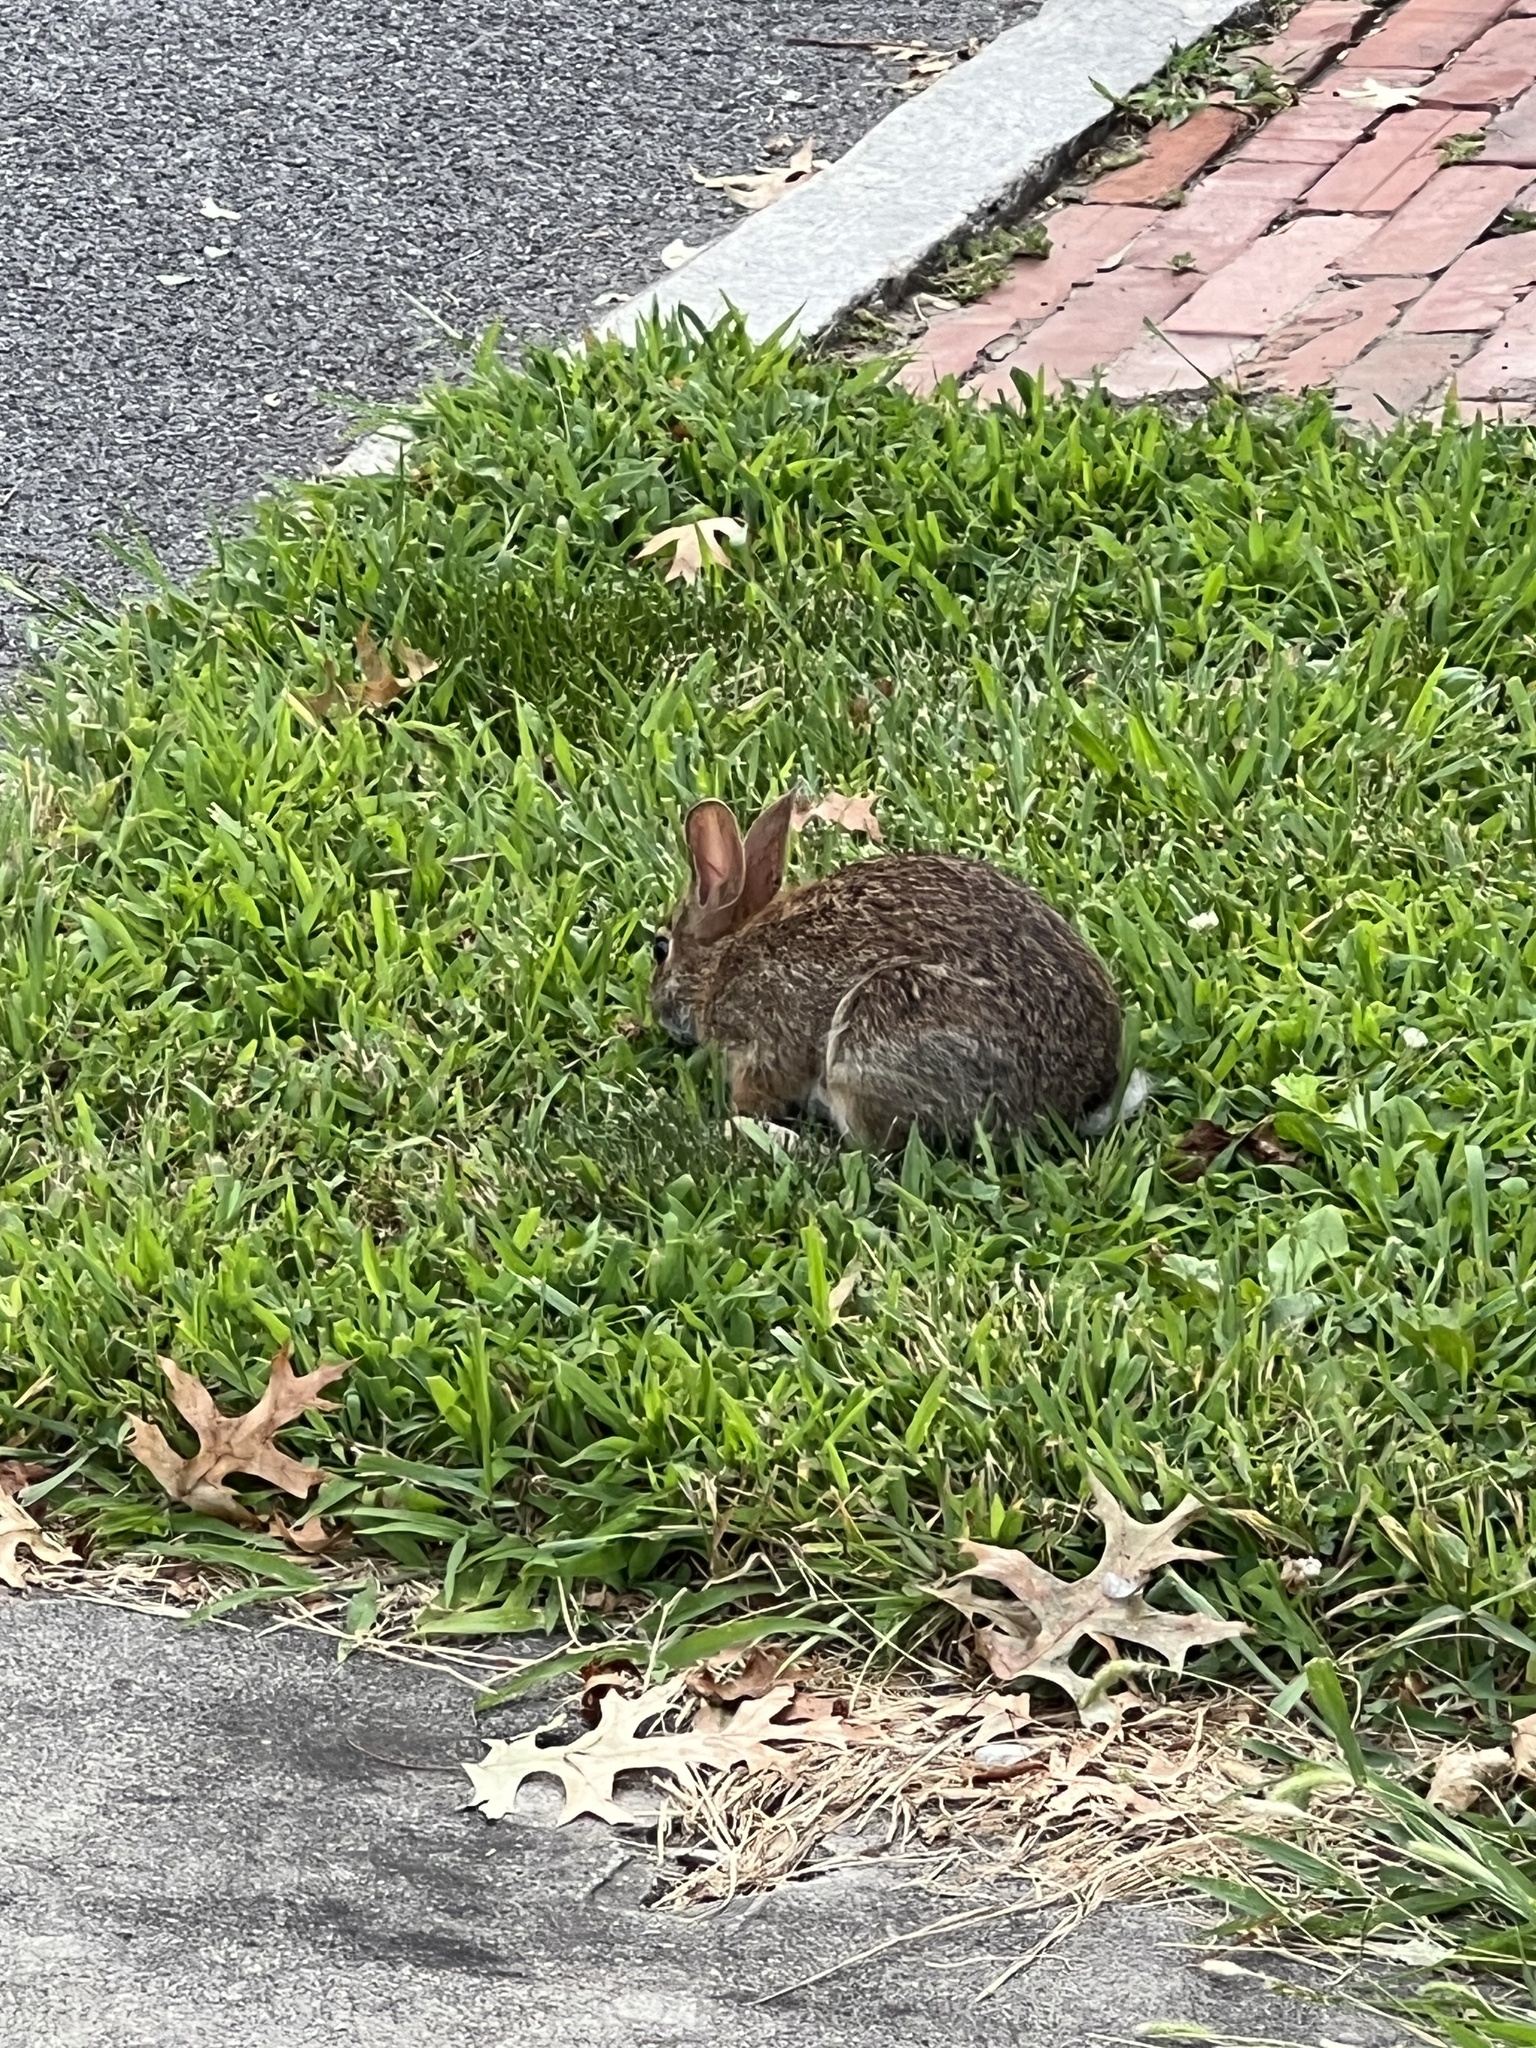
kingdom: Animalia
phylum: Chordata
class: Mammalia
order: Lagomorpha
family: Leporidae
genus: Sylvilagus
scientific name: Sylvilagus floridanus
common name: Eastern cottontail
